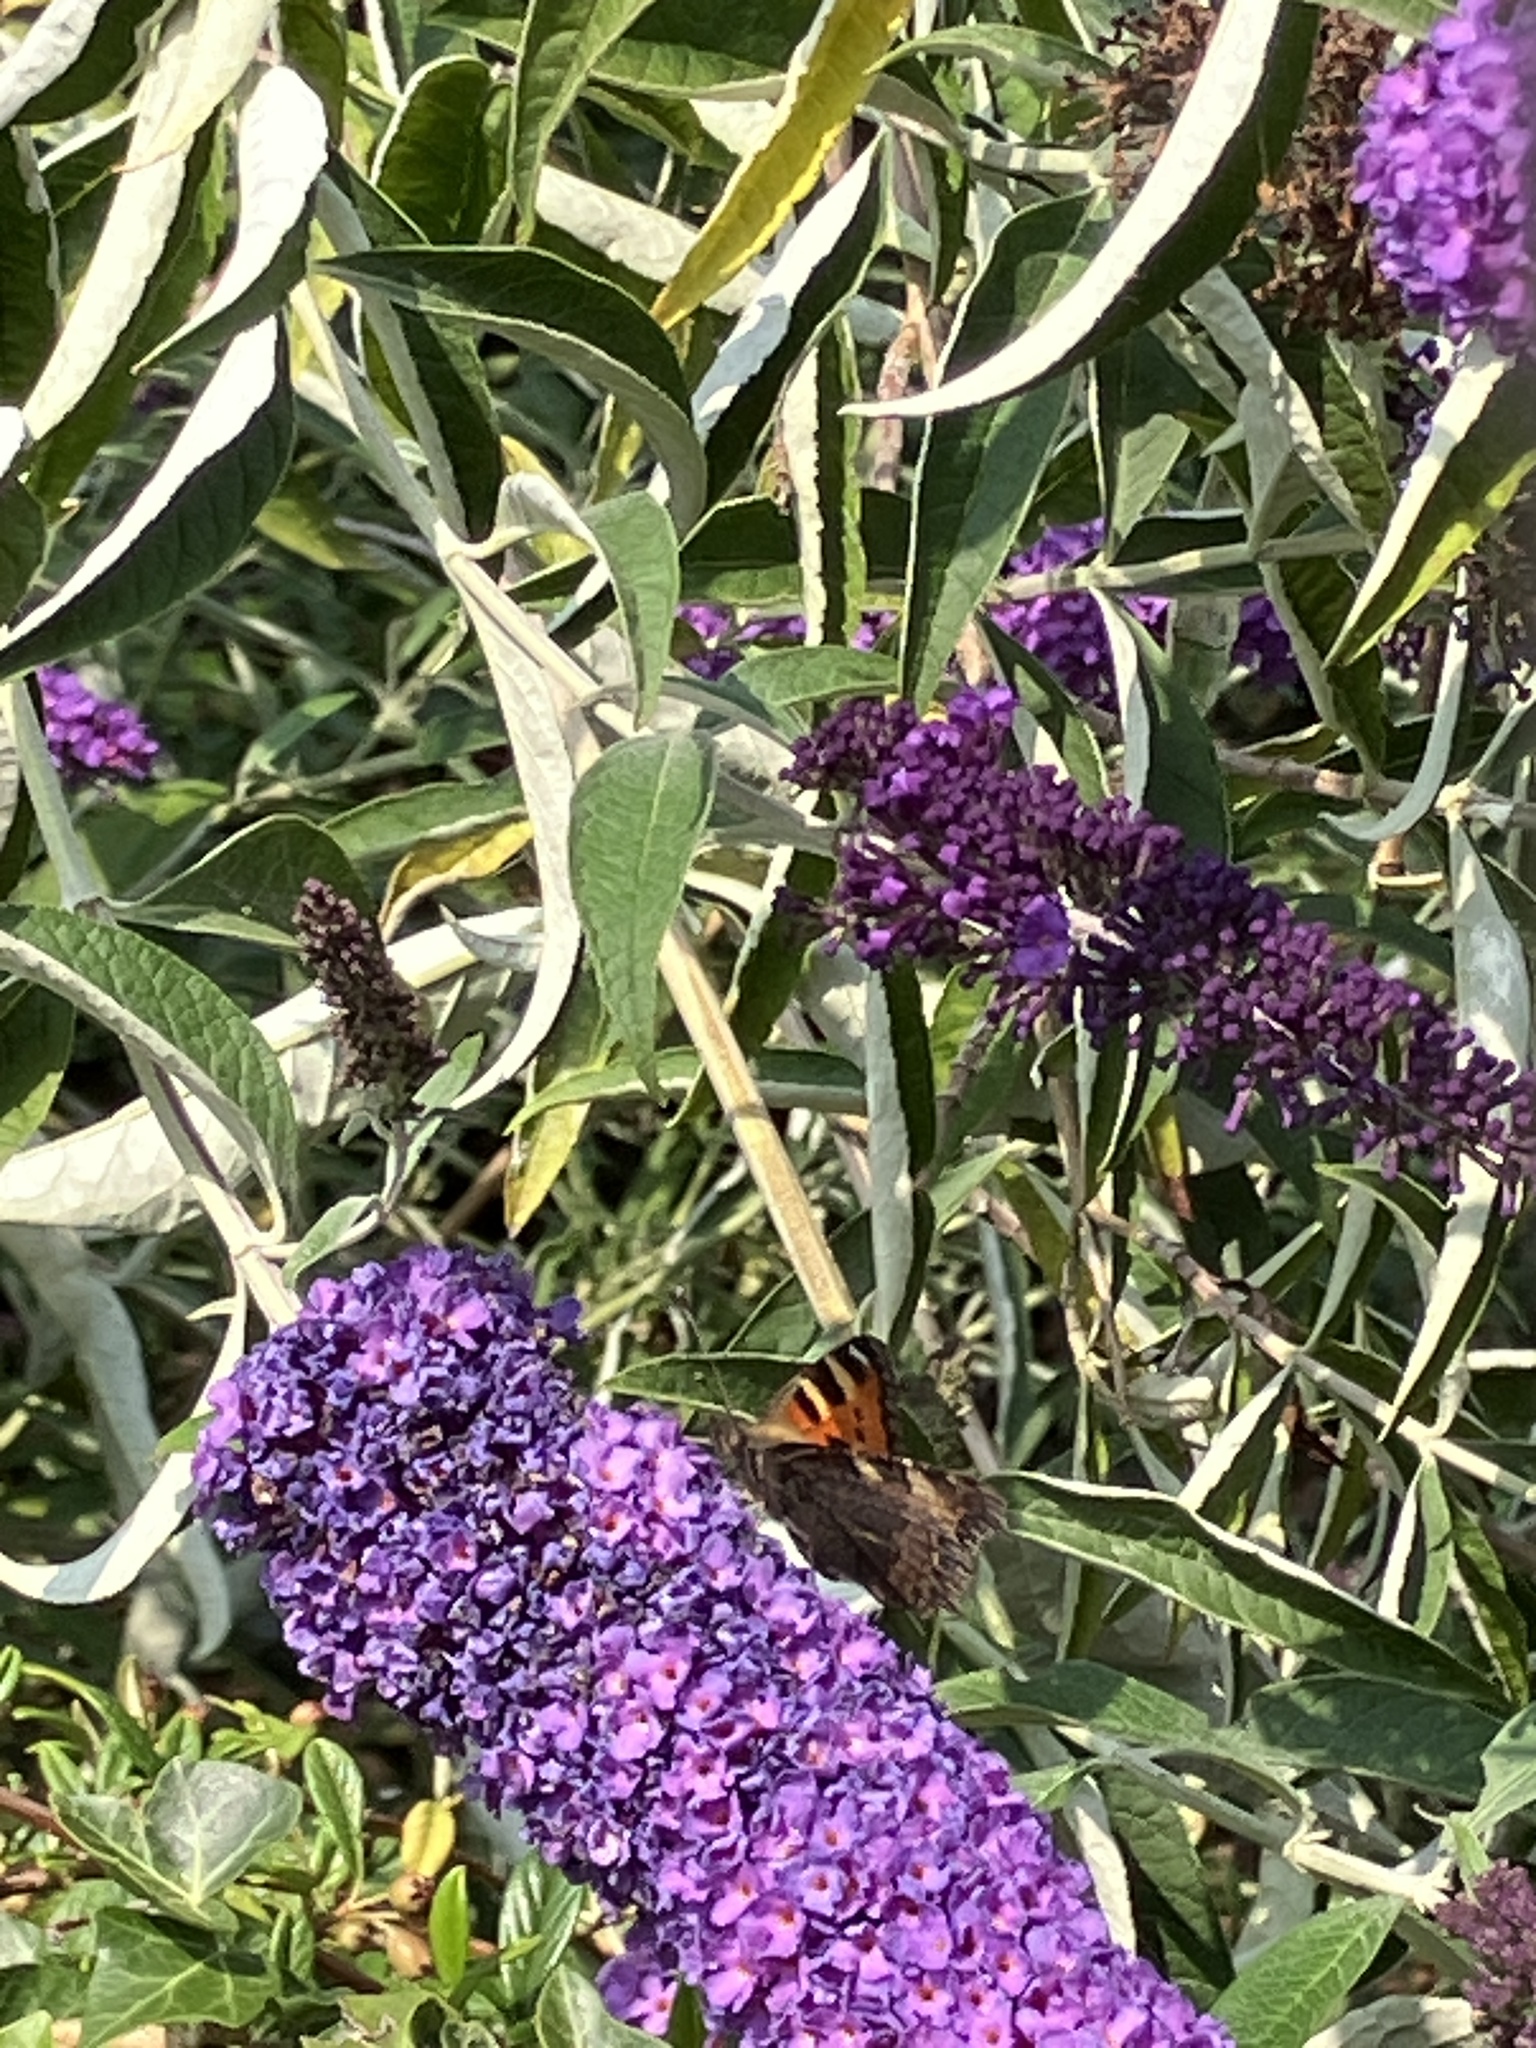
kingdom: Animalia
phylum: Arthropoda
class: Insecta
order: Lepidoptera
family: Nymphalidae
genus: Aglais
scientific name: Aglais urticae
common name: Small tortoiseshell
